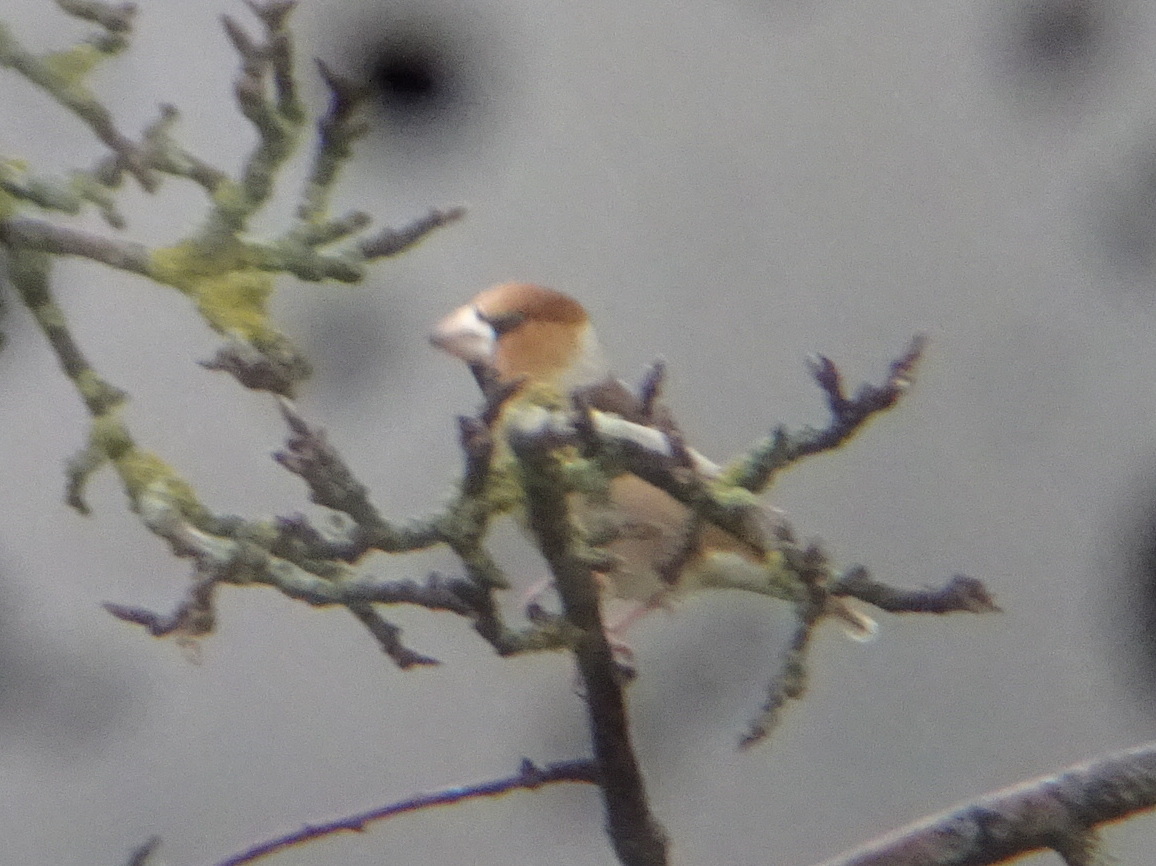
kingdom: Animalia
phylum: Chordata
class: Aves
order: Passeriformes
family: Fringillidae
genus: Coccothraustes
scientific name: Coccothraustes coccothraustes
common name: Hawfinch
